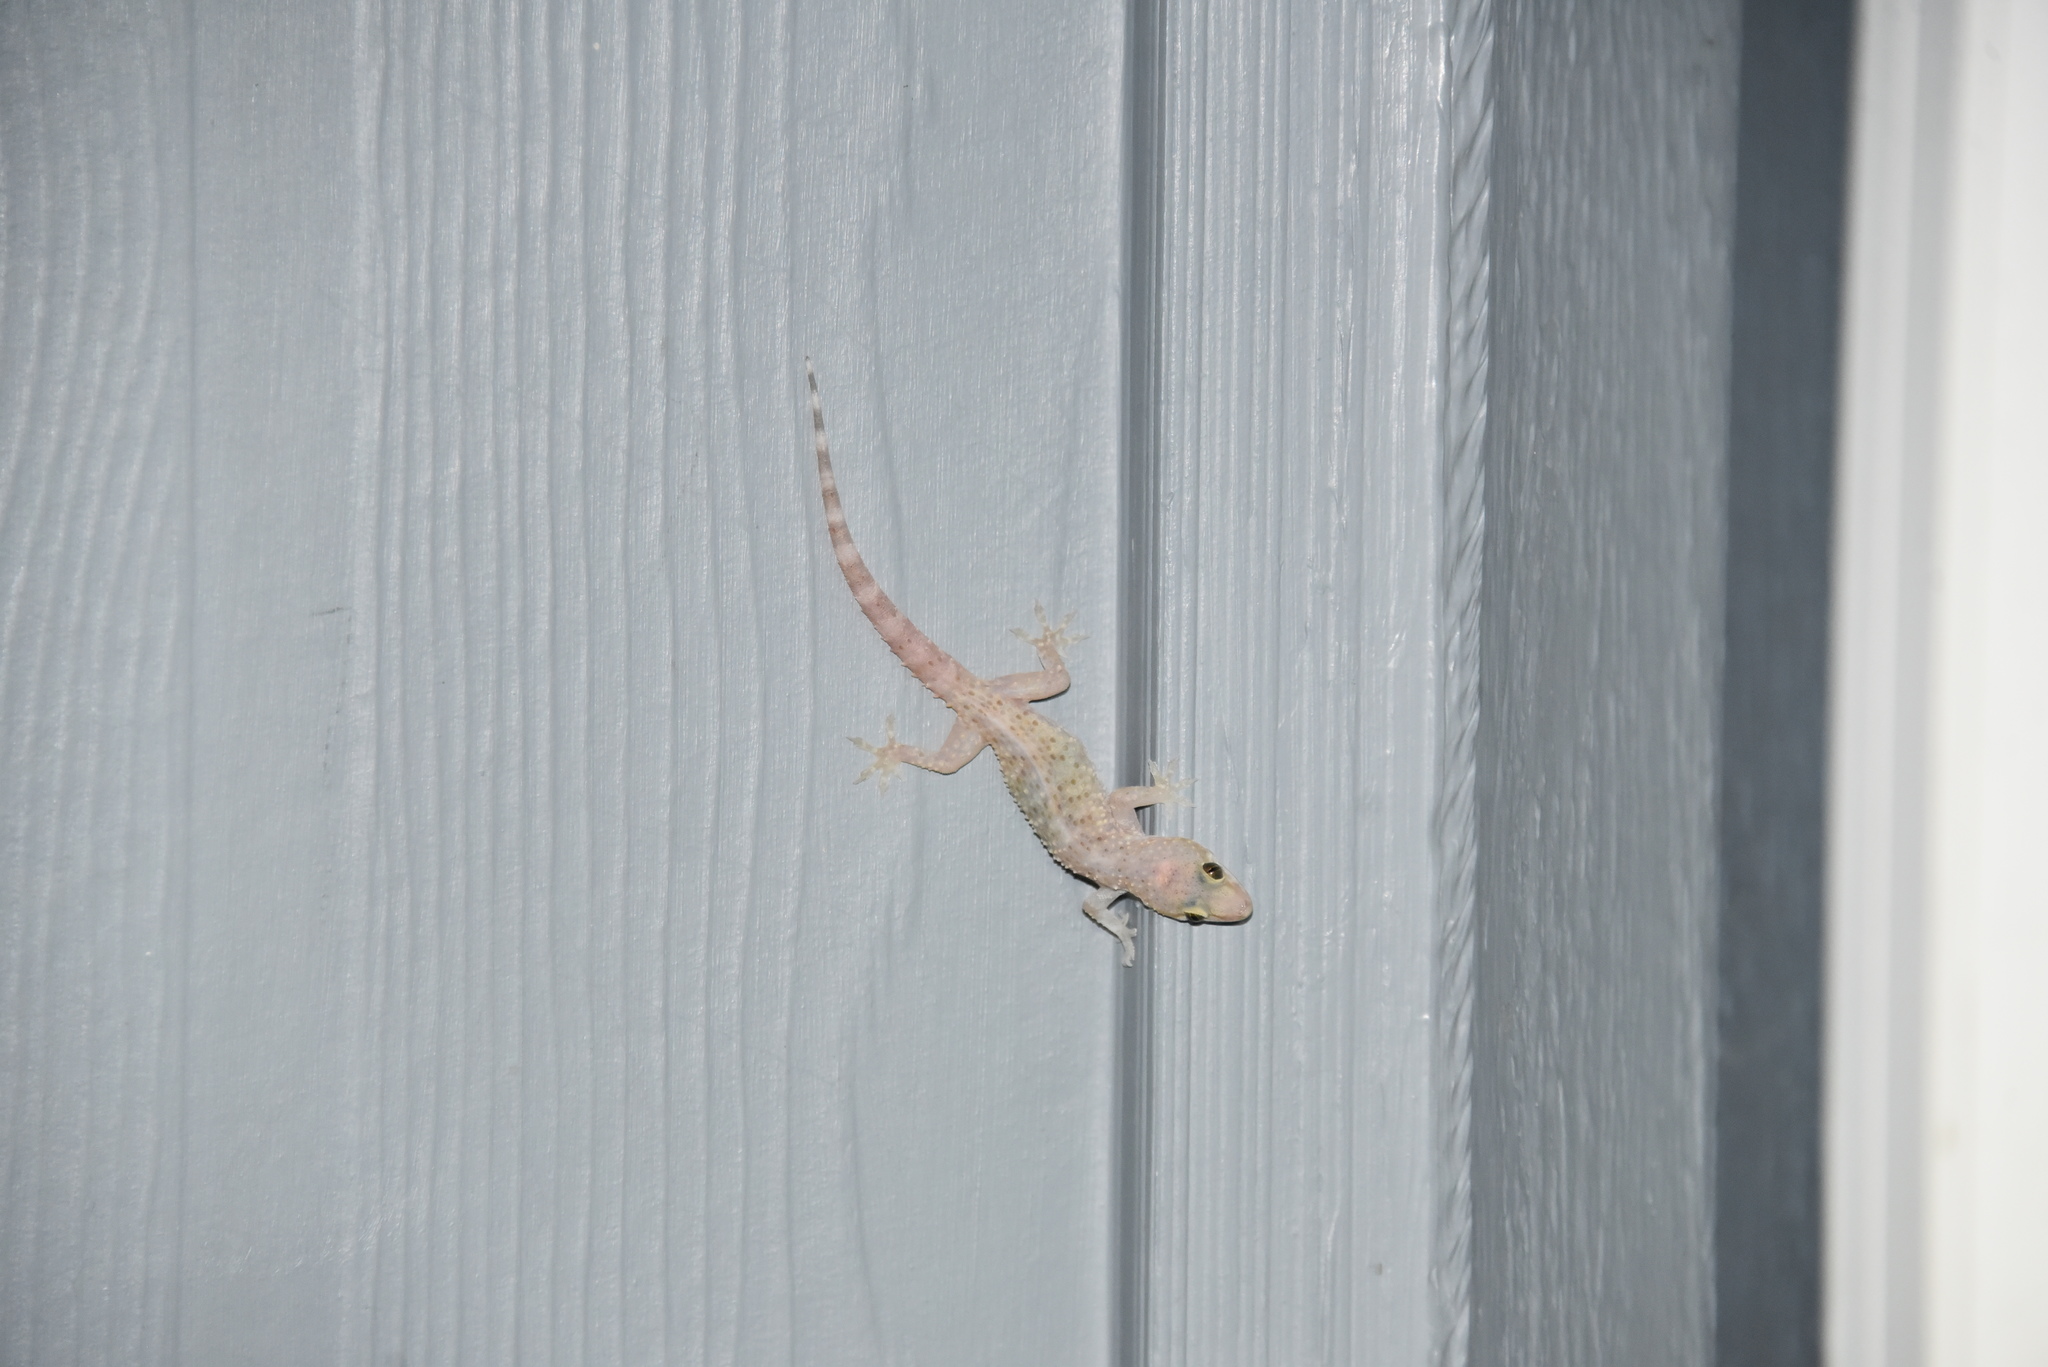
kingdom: Animalia
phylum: Chordata
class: Squamata
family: Gekkonidae
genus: Hemidactylus
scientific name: Hemidactylus turcicus
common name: Turkish gecko
